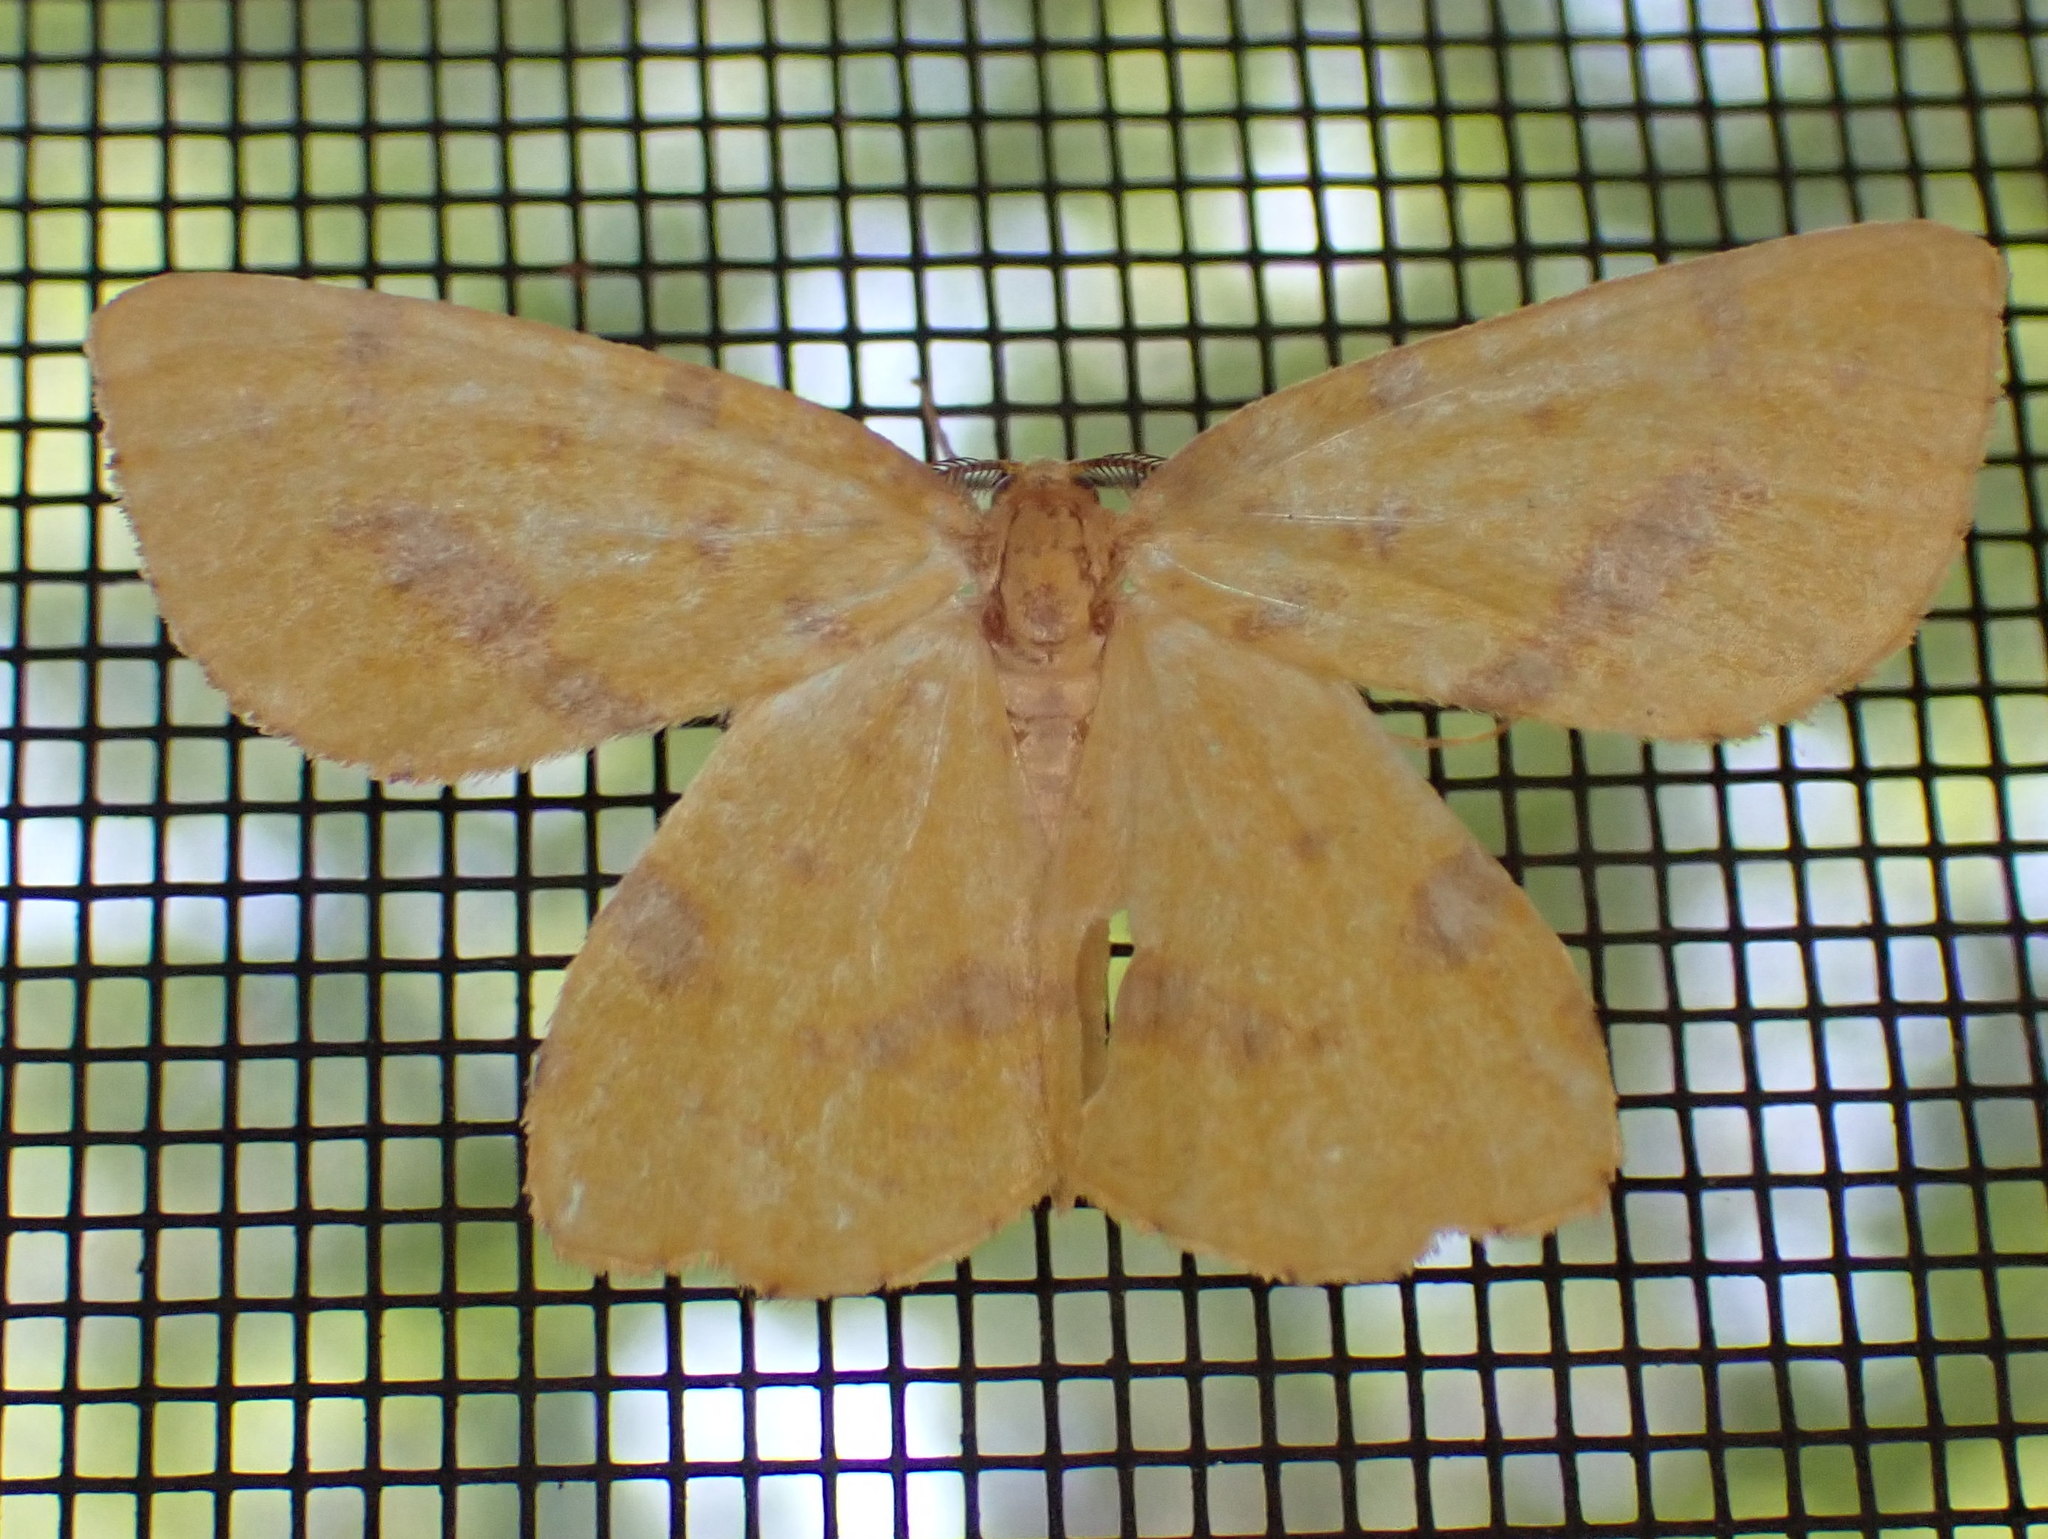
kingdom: Animalia
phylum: Arthropoda
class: Insecta
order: Lepidoptera
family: Geometridae
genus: Xanthotype
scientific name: Xanthotype
